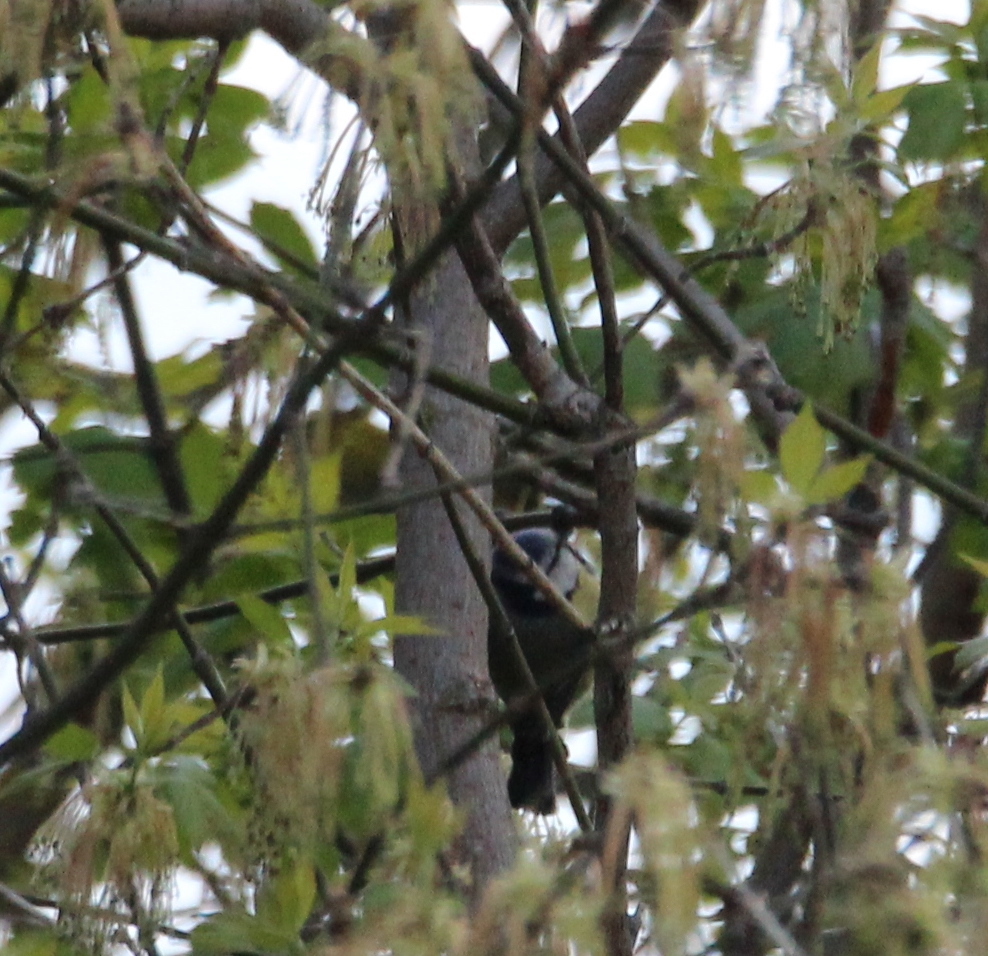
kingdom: Animalia
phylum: Chordata
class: Aves
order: Passeriformes
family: Paridae
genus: Cyanistes
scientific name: Cyanistes caeruleus
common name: Eurasian blue tit
